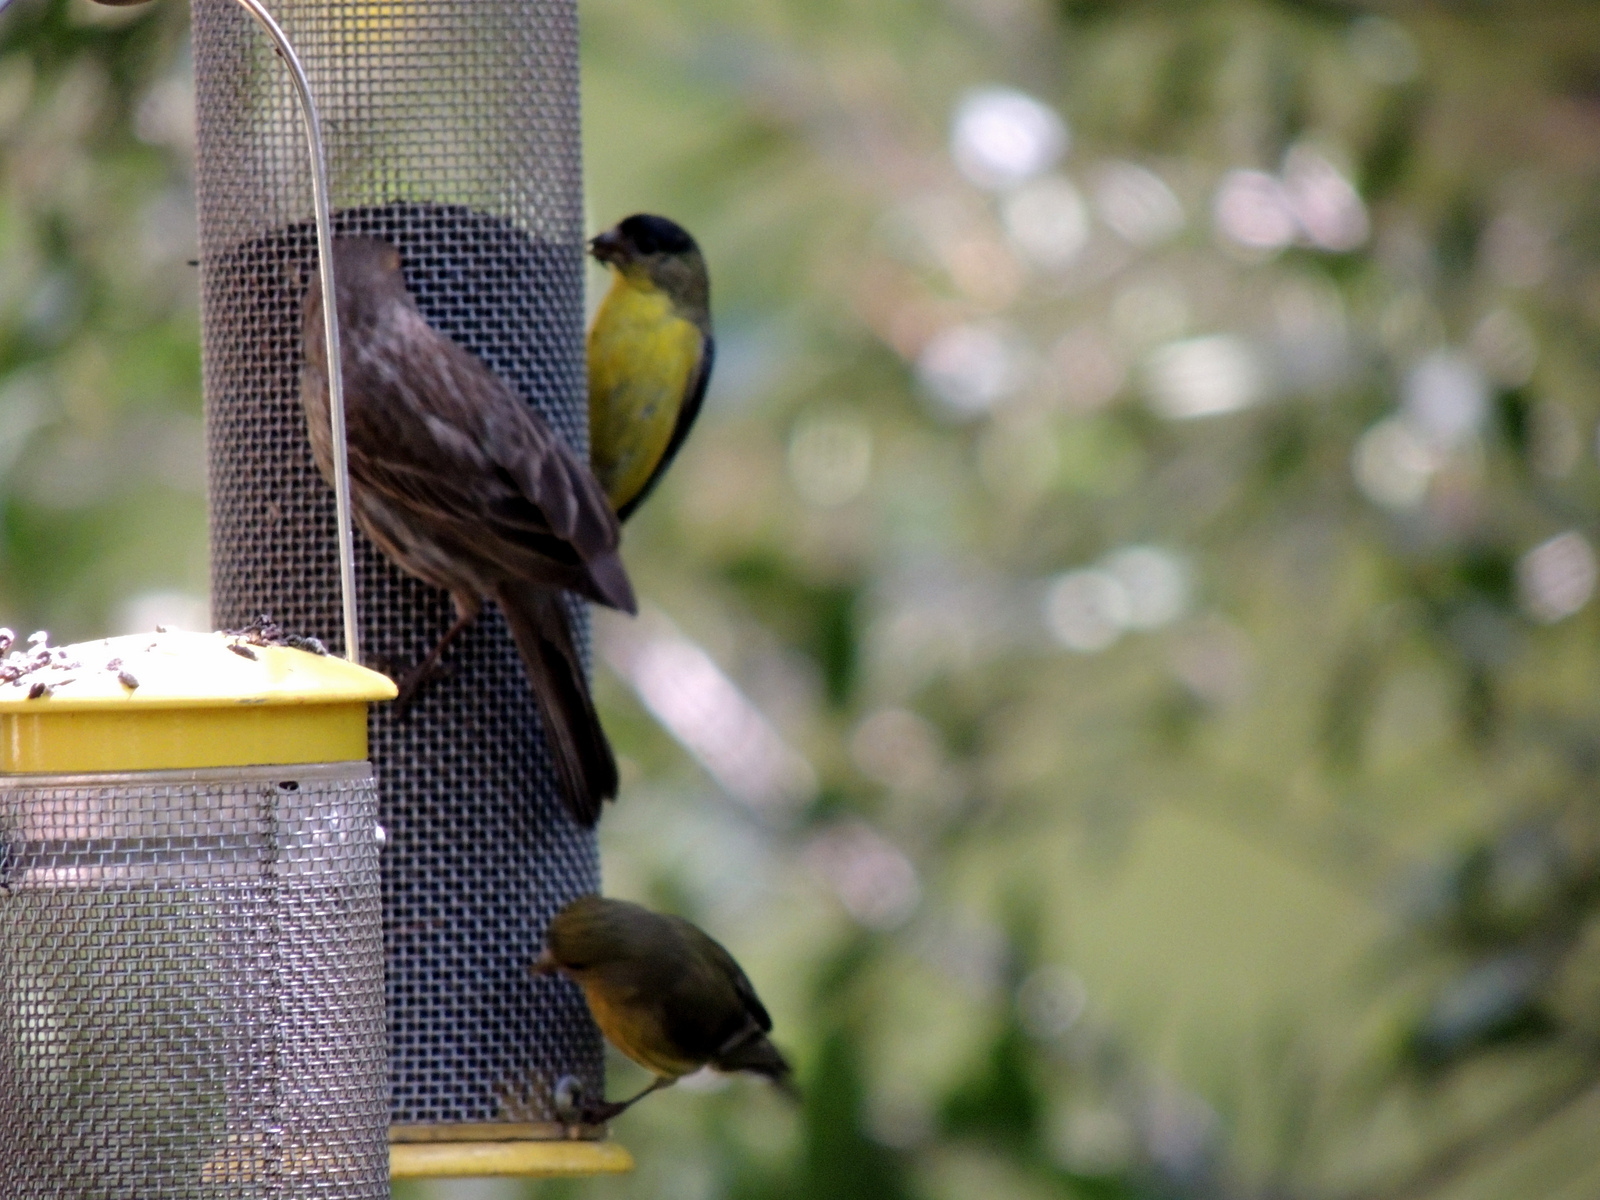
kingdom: Animalia
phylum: Chordata
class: Aves
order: Passeriformes
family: Fringillidae
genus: Spinus
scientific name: Spinus psaltria
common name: Lesser goldfinch
